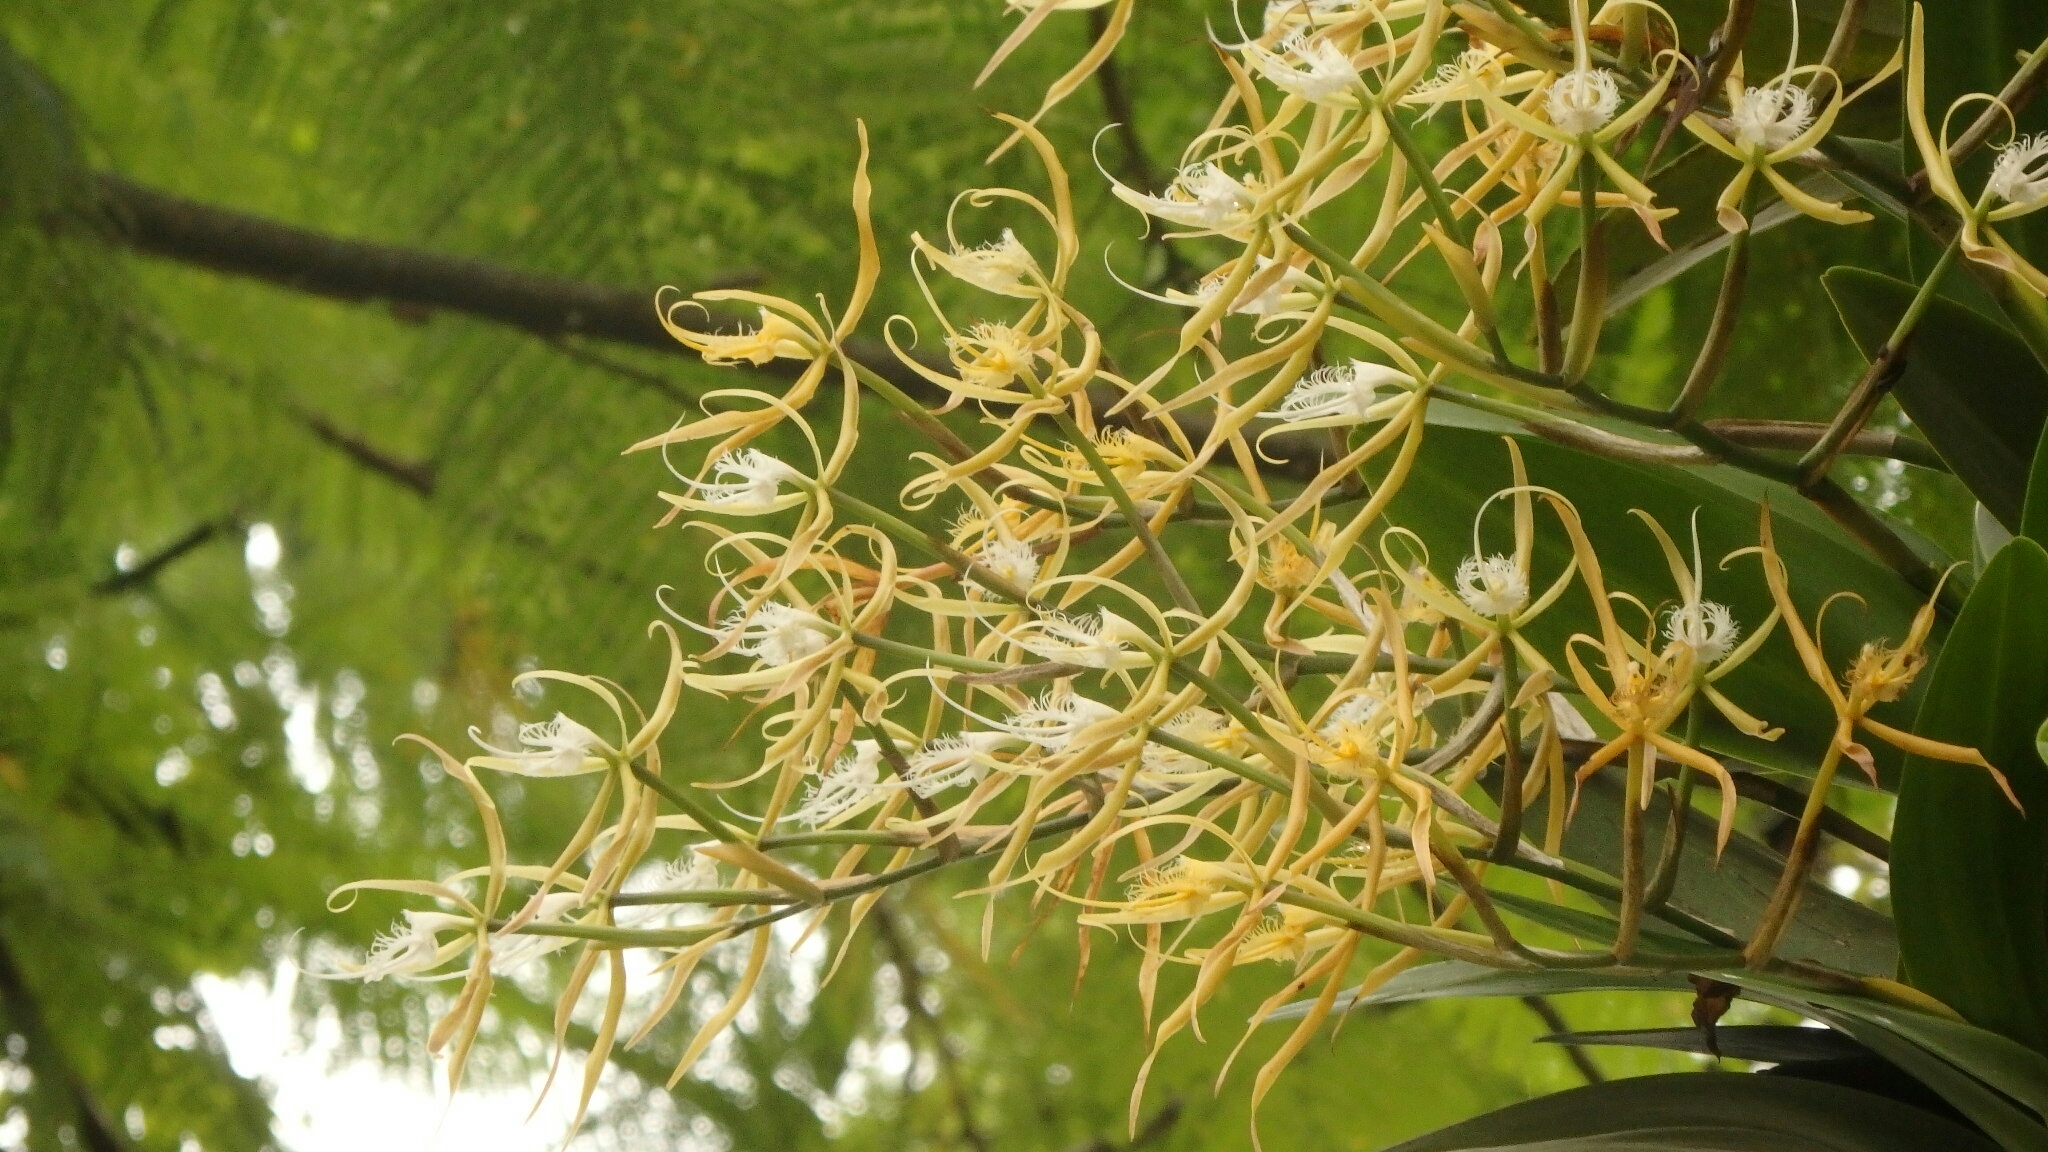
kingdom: Plantae
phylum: Tracheophyta
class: Liliopsida
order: Asparagales
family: Orchidaceae
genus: Epidendrum
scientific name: Epidendrum ciliare
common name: Eyelash orchid
